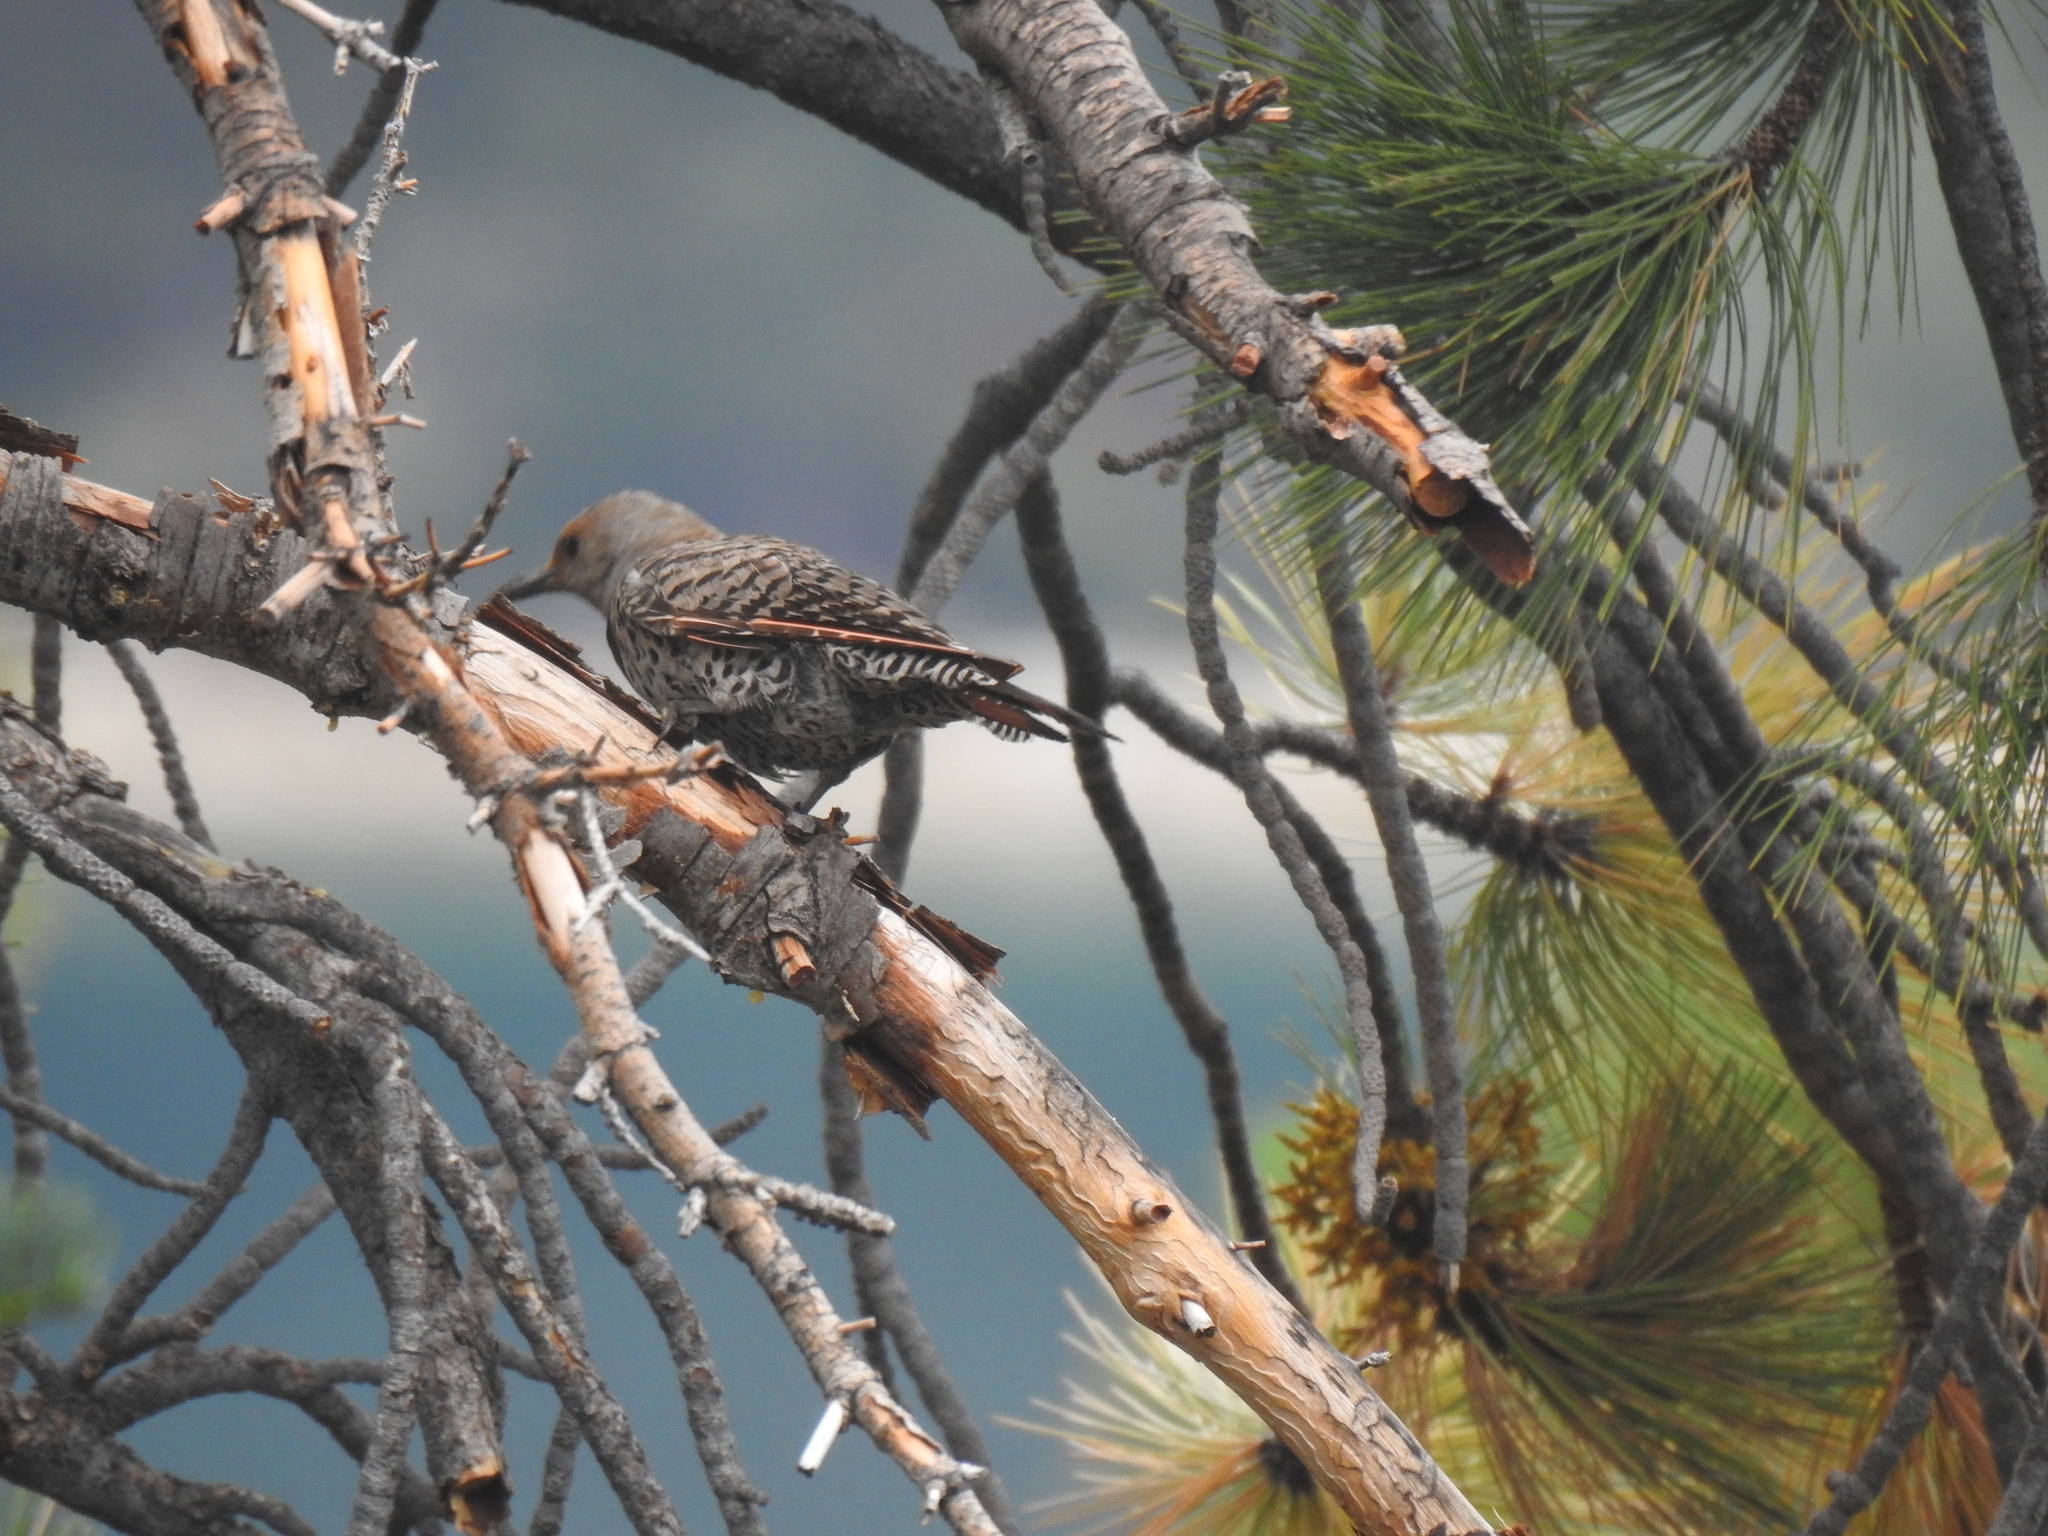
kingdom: Animalia
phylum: Chordata
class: Aves
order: Piciformes
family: Picidae
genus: Colaptes
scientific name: Colaptes auratus
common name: Northern flicker
